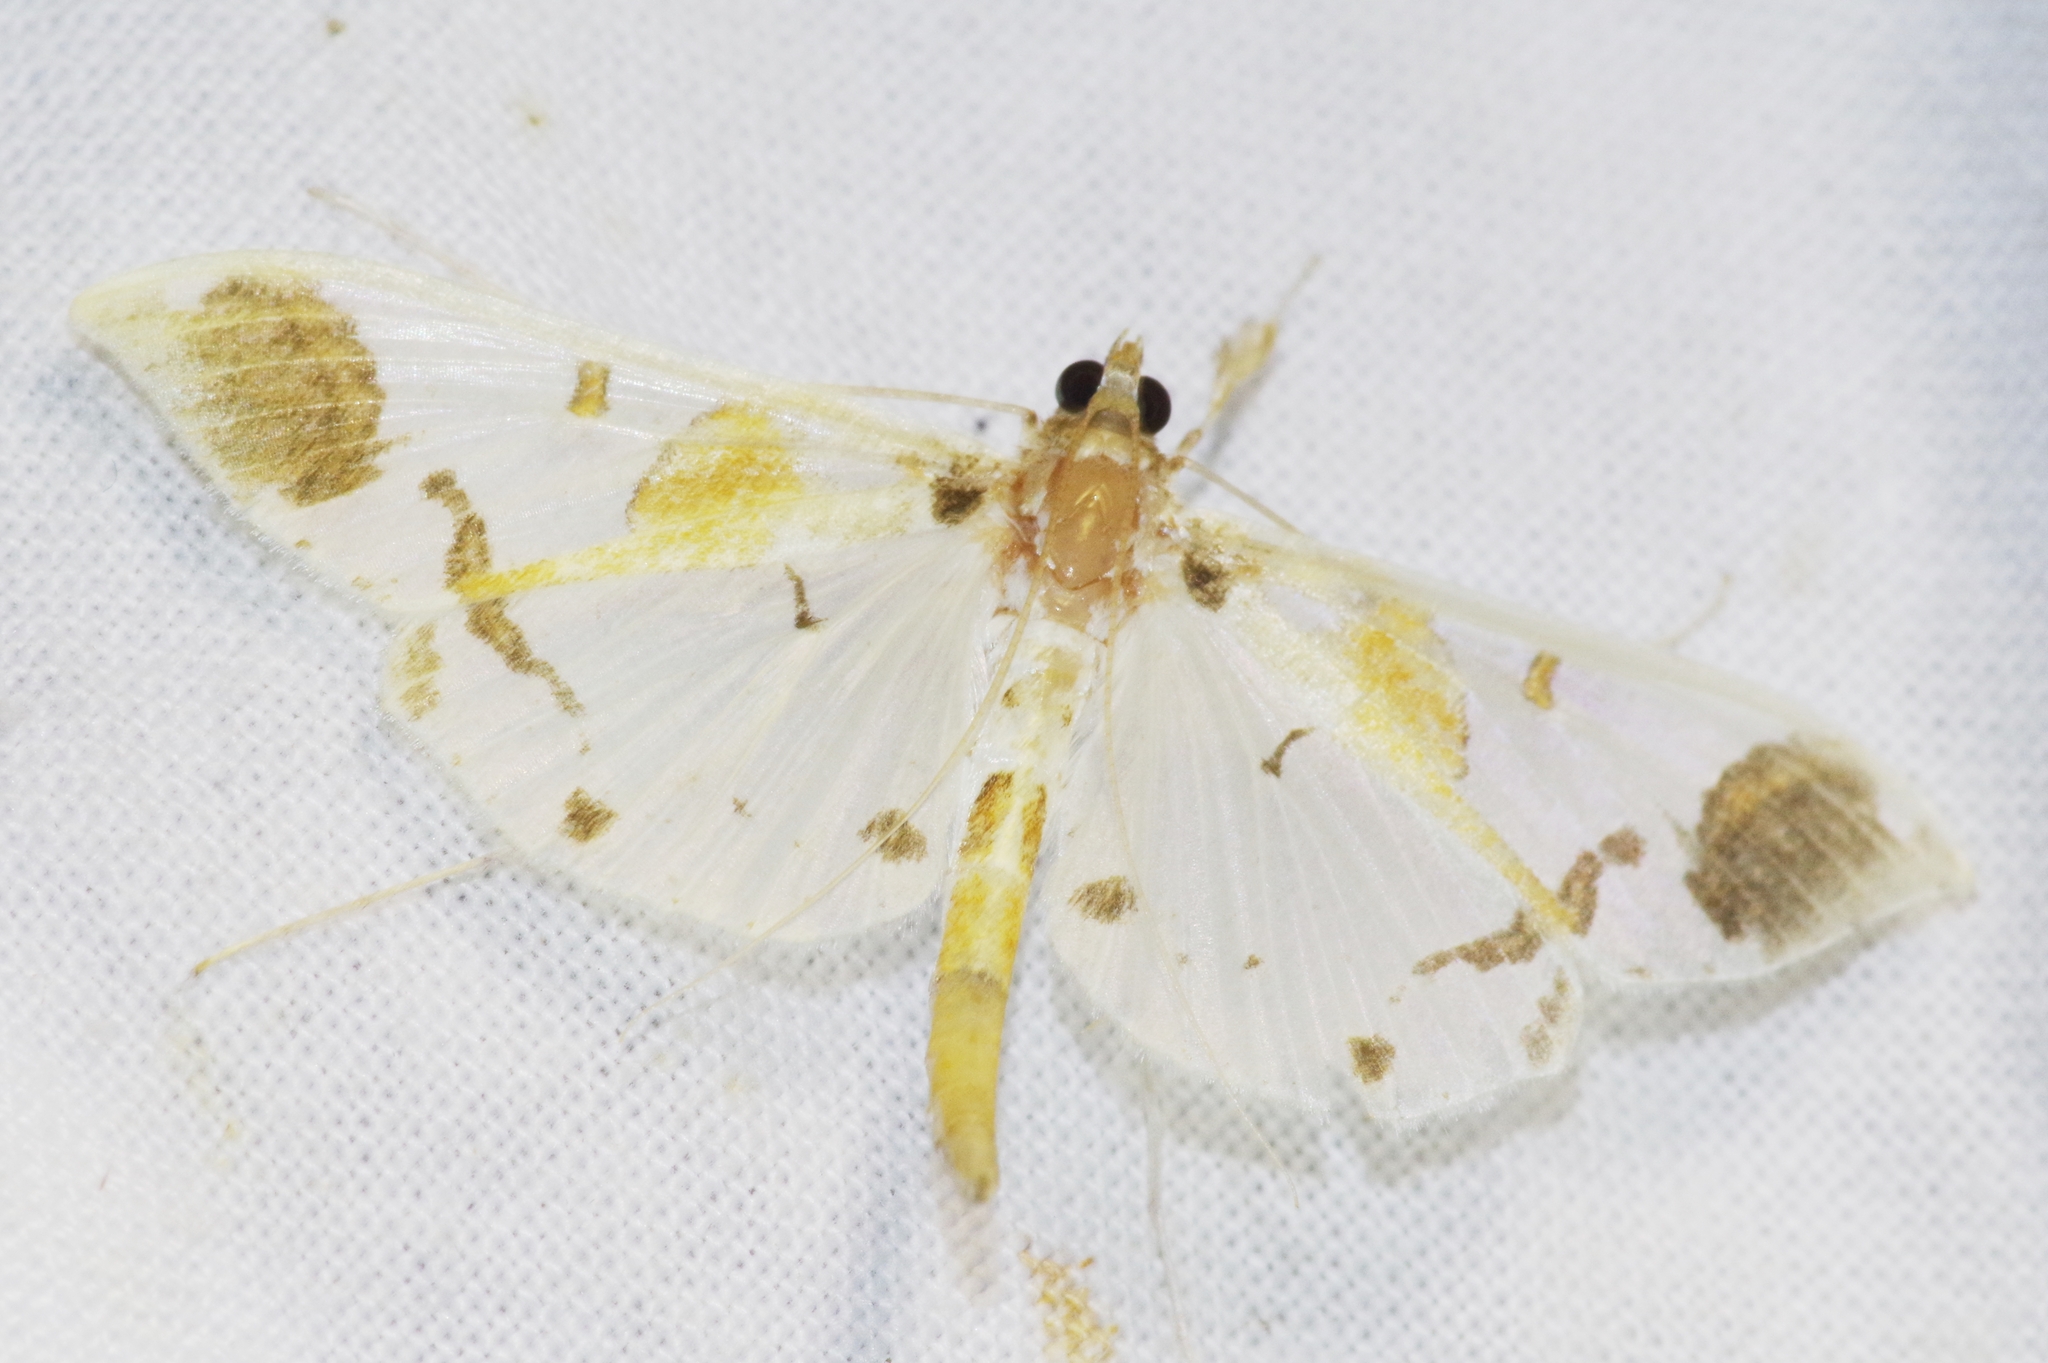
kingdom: Animalia
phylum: Arthropoda
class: Insecta
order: Lepidoptera
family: Crambidae
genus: Polythlipta
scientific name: Polythlipta liquidalis
